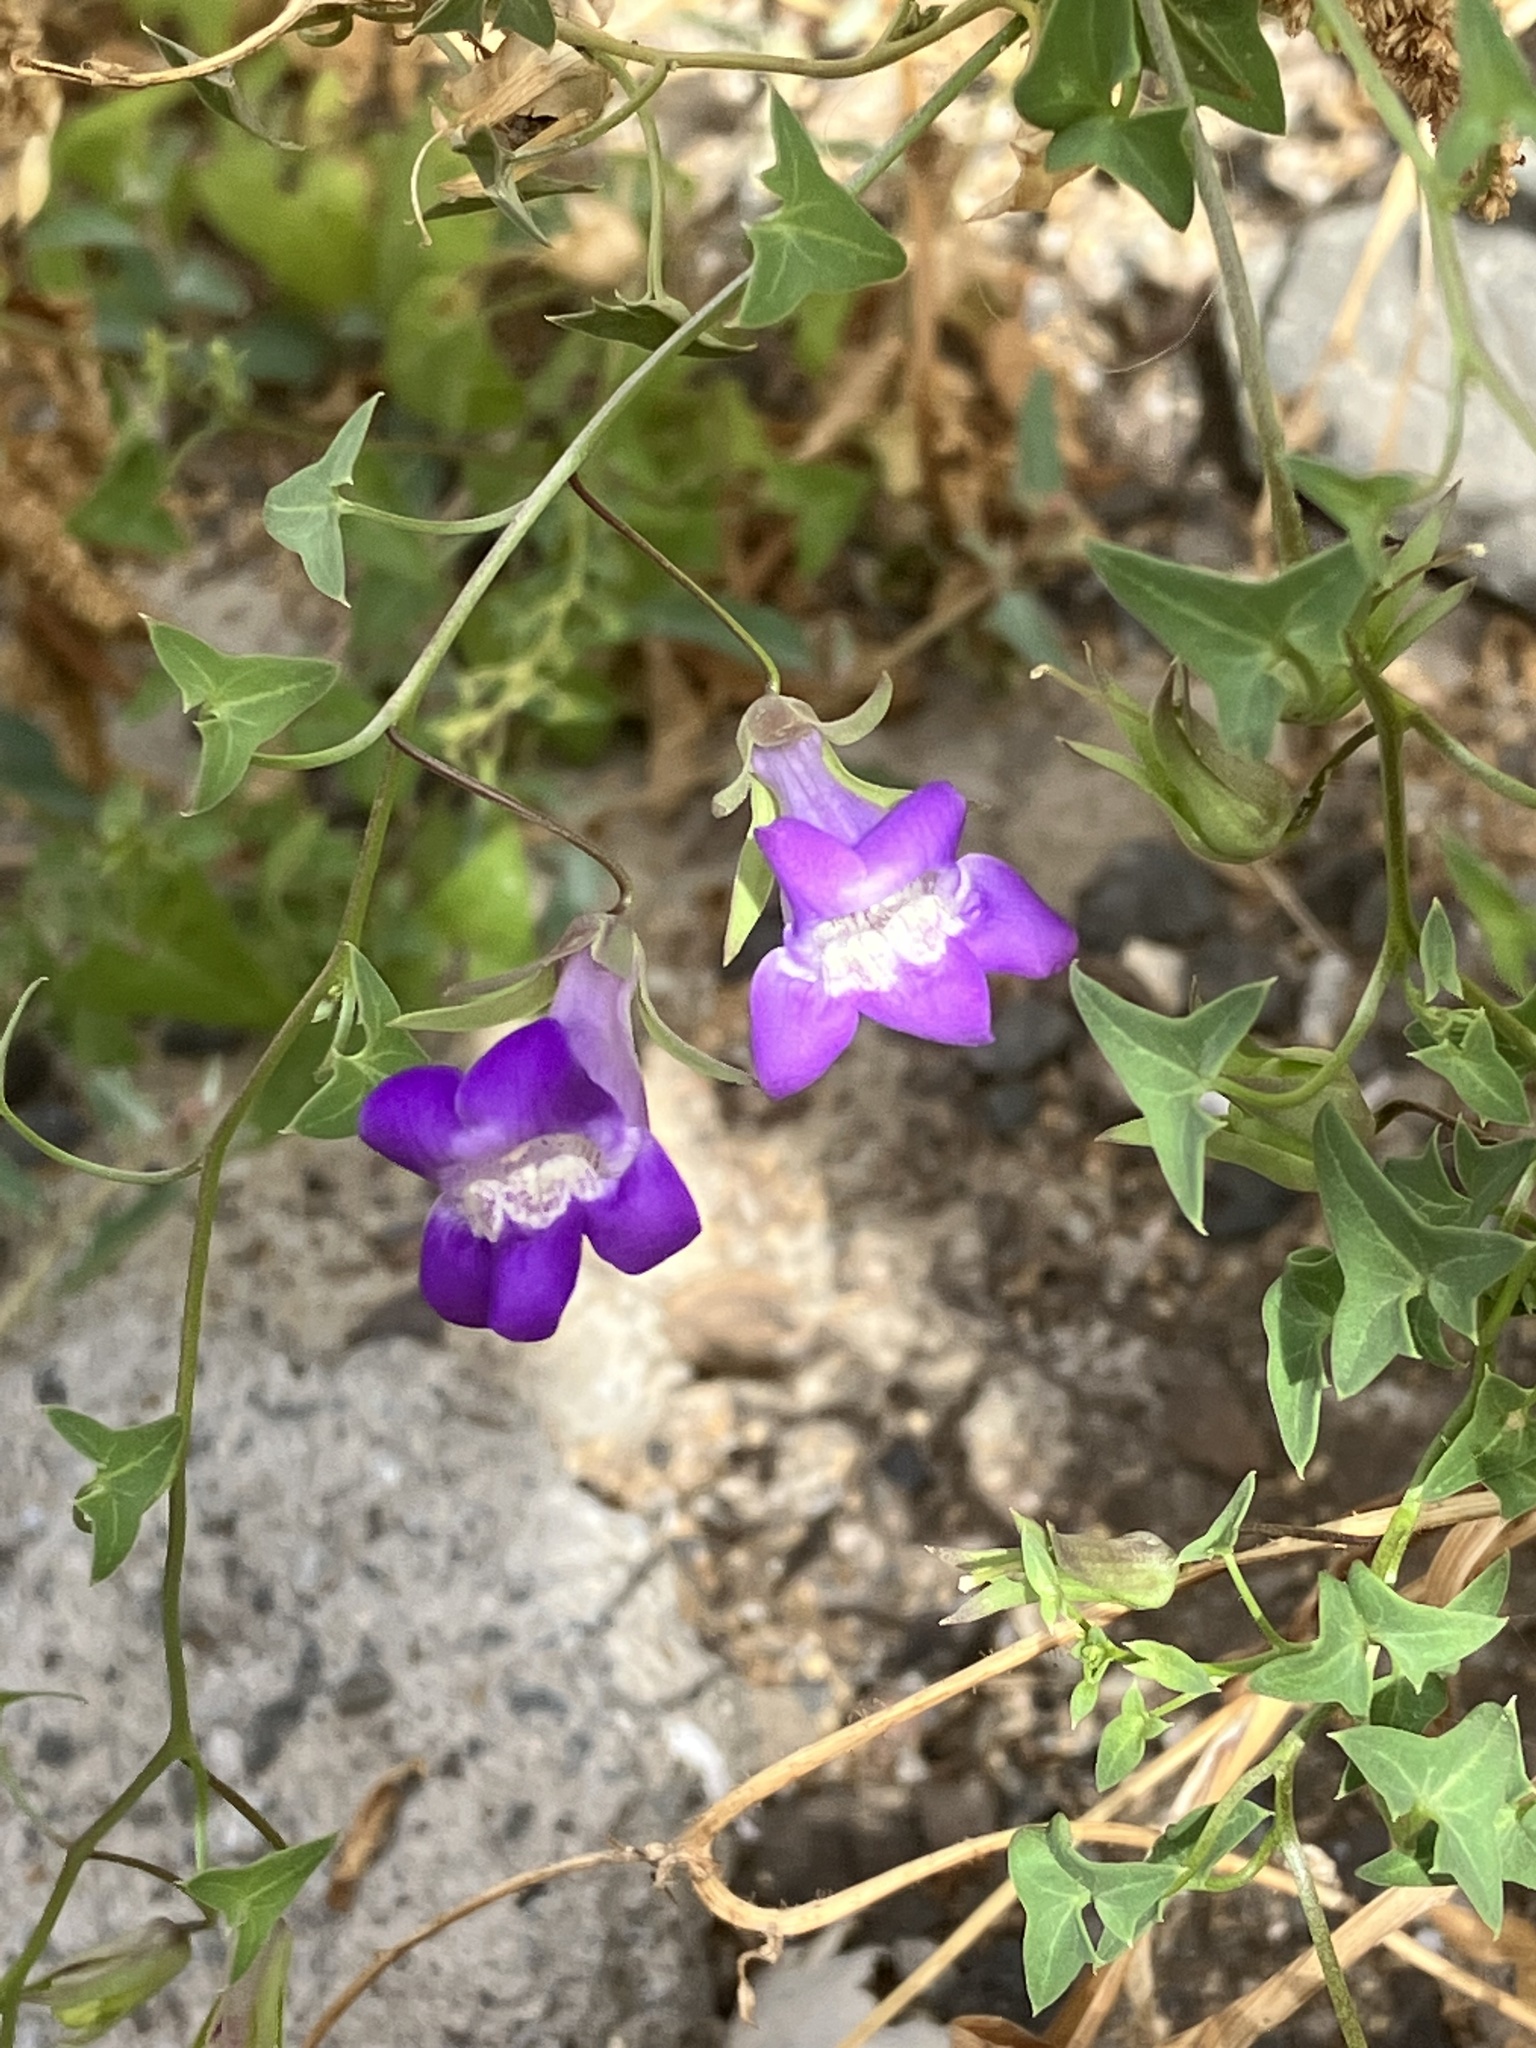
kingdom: Plantae
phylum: Tracheophyta
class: Magnoliopsida
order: Lamiales
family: Plantaginaceae
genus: Maurandella
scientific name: Maurandella antirrhiniflora
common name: Violet twining-snapdragon
